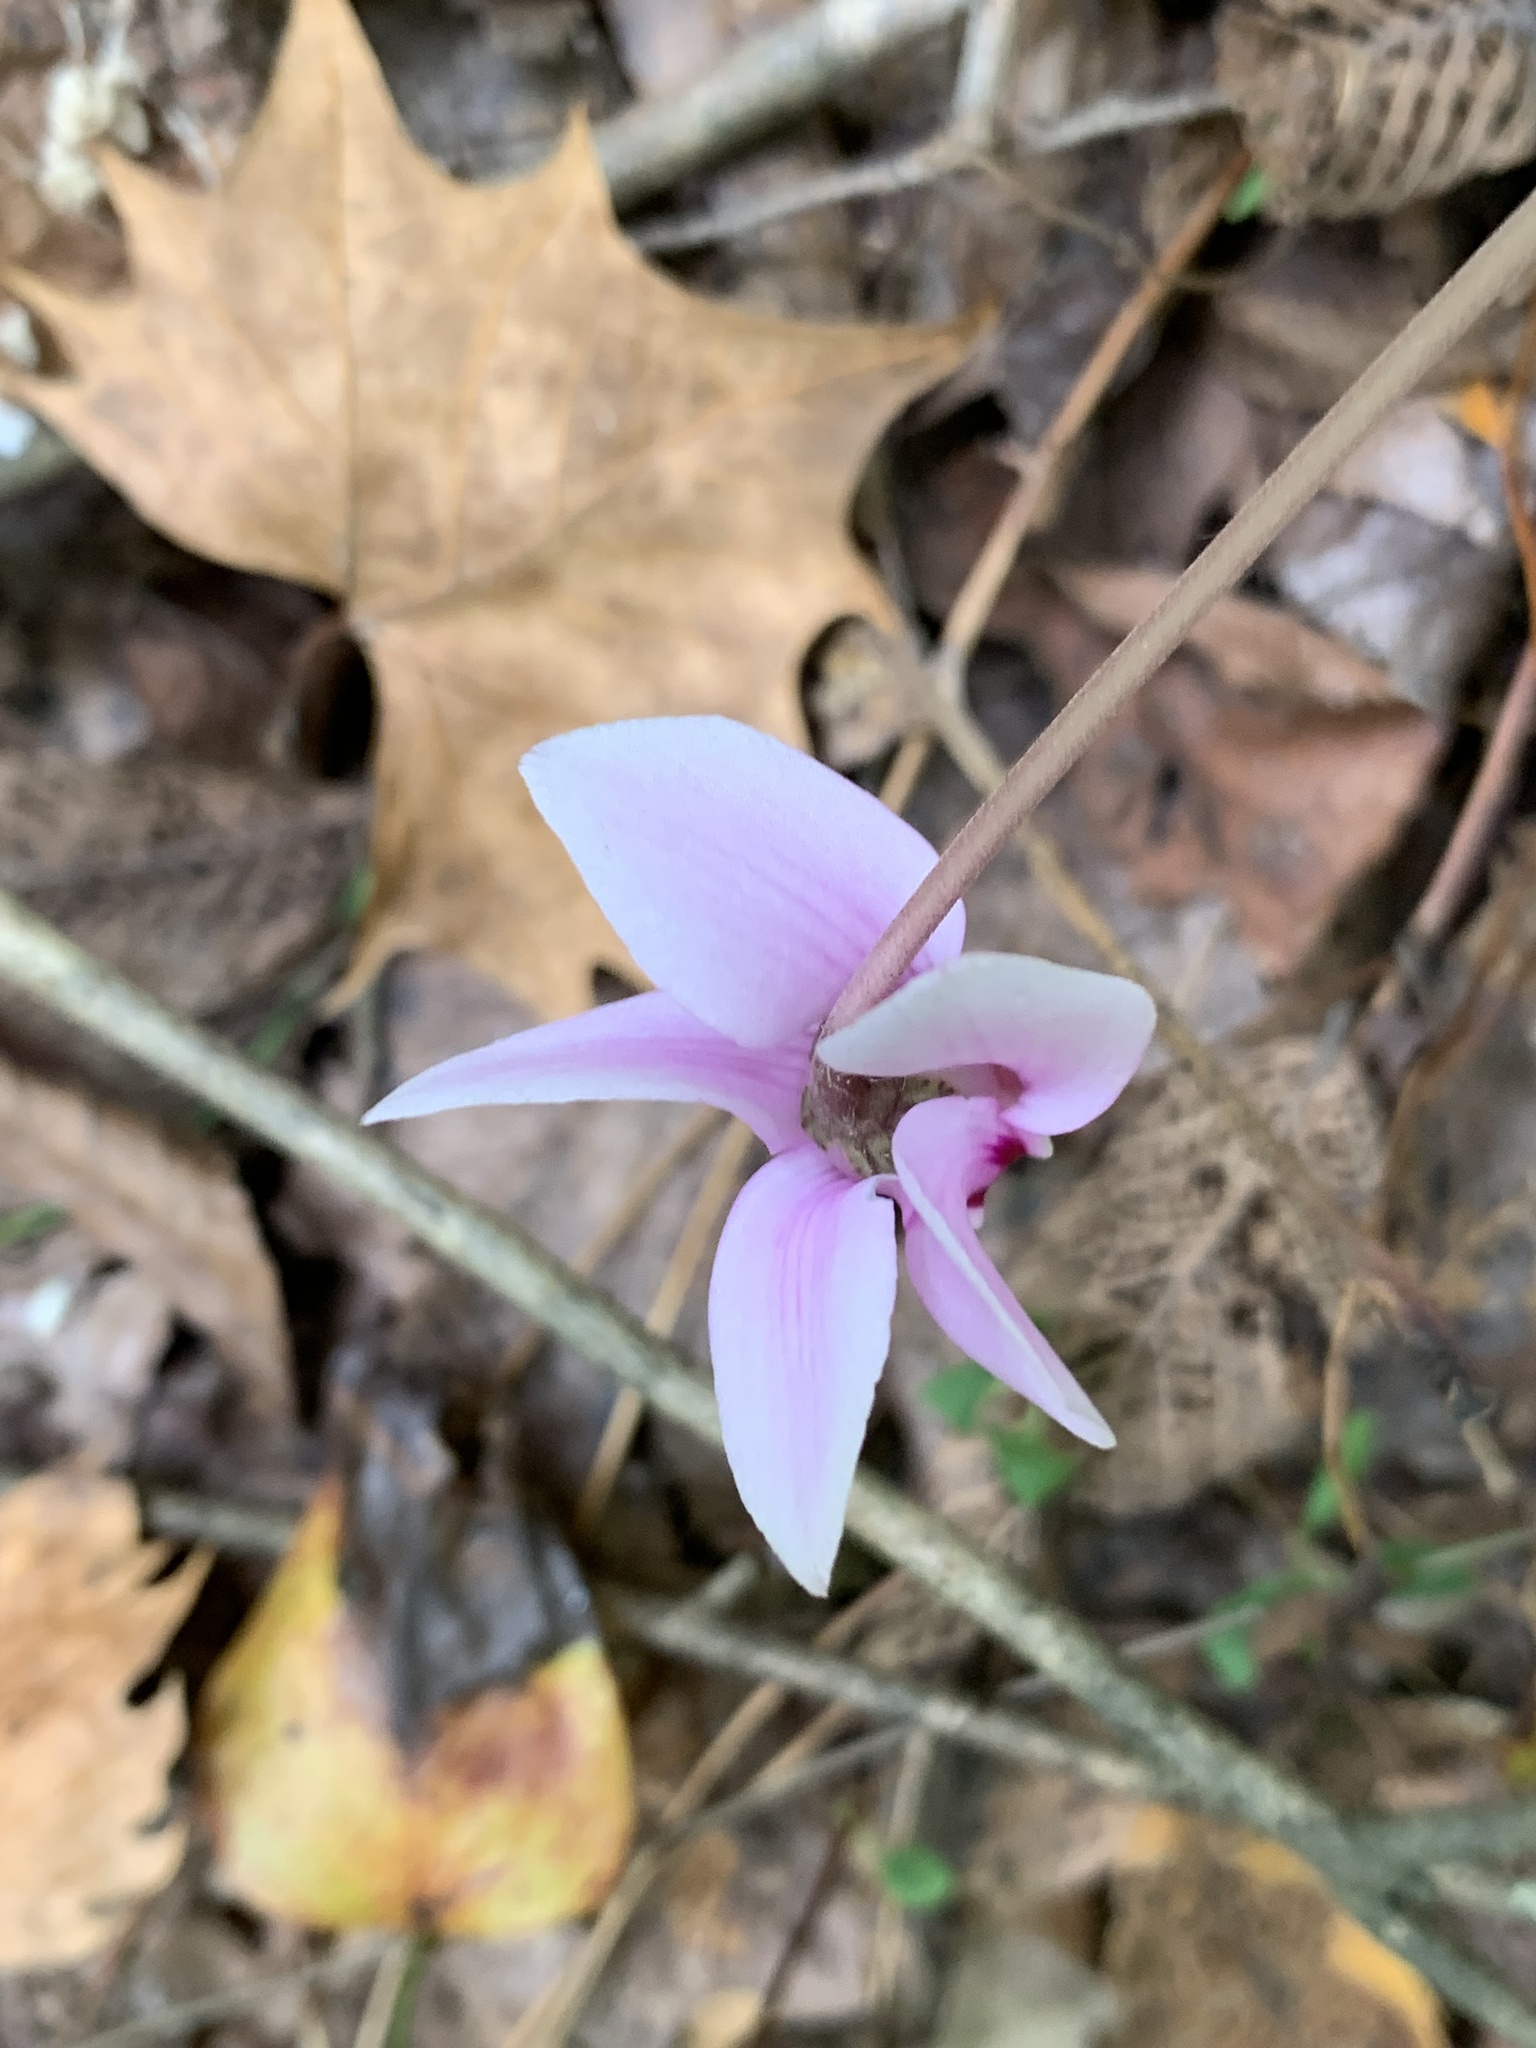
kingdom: Plantae
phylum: Tracheophyta
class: Magnoliopsida
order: Ericales
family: Primulaceae
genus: Cyclamen
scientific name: Cyclamen hederifolium
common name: Sowbread
